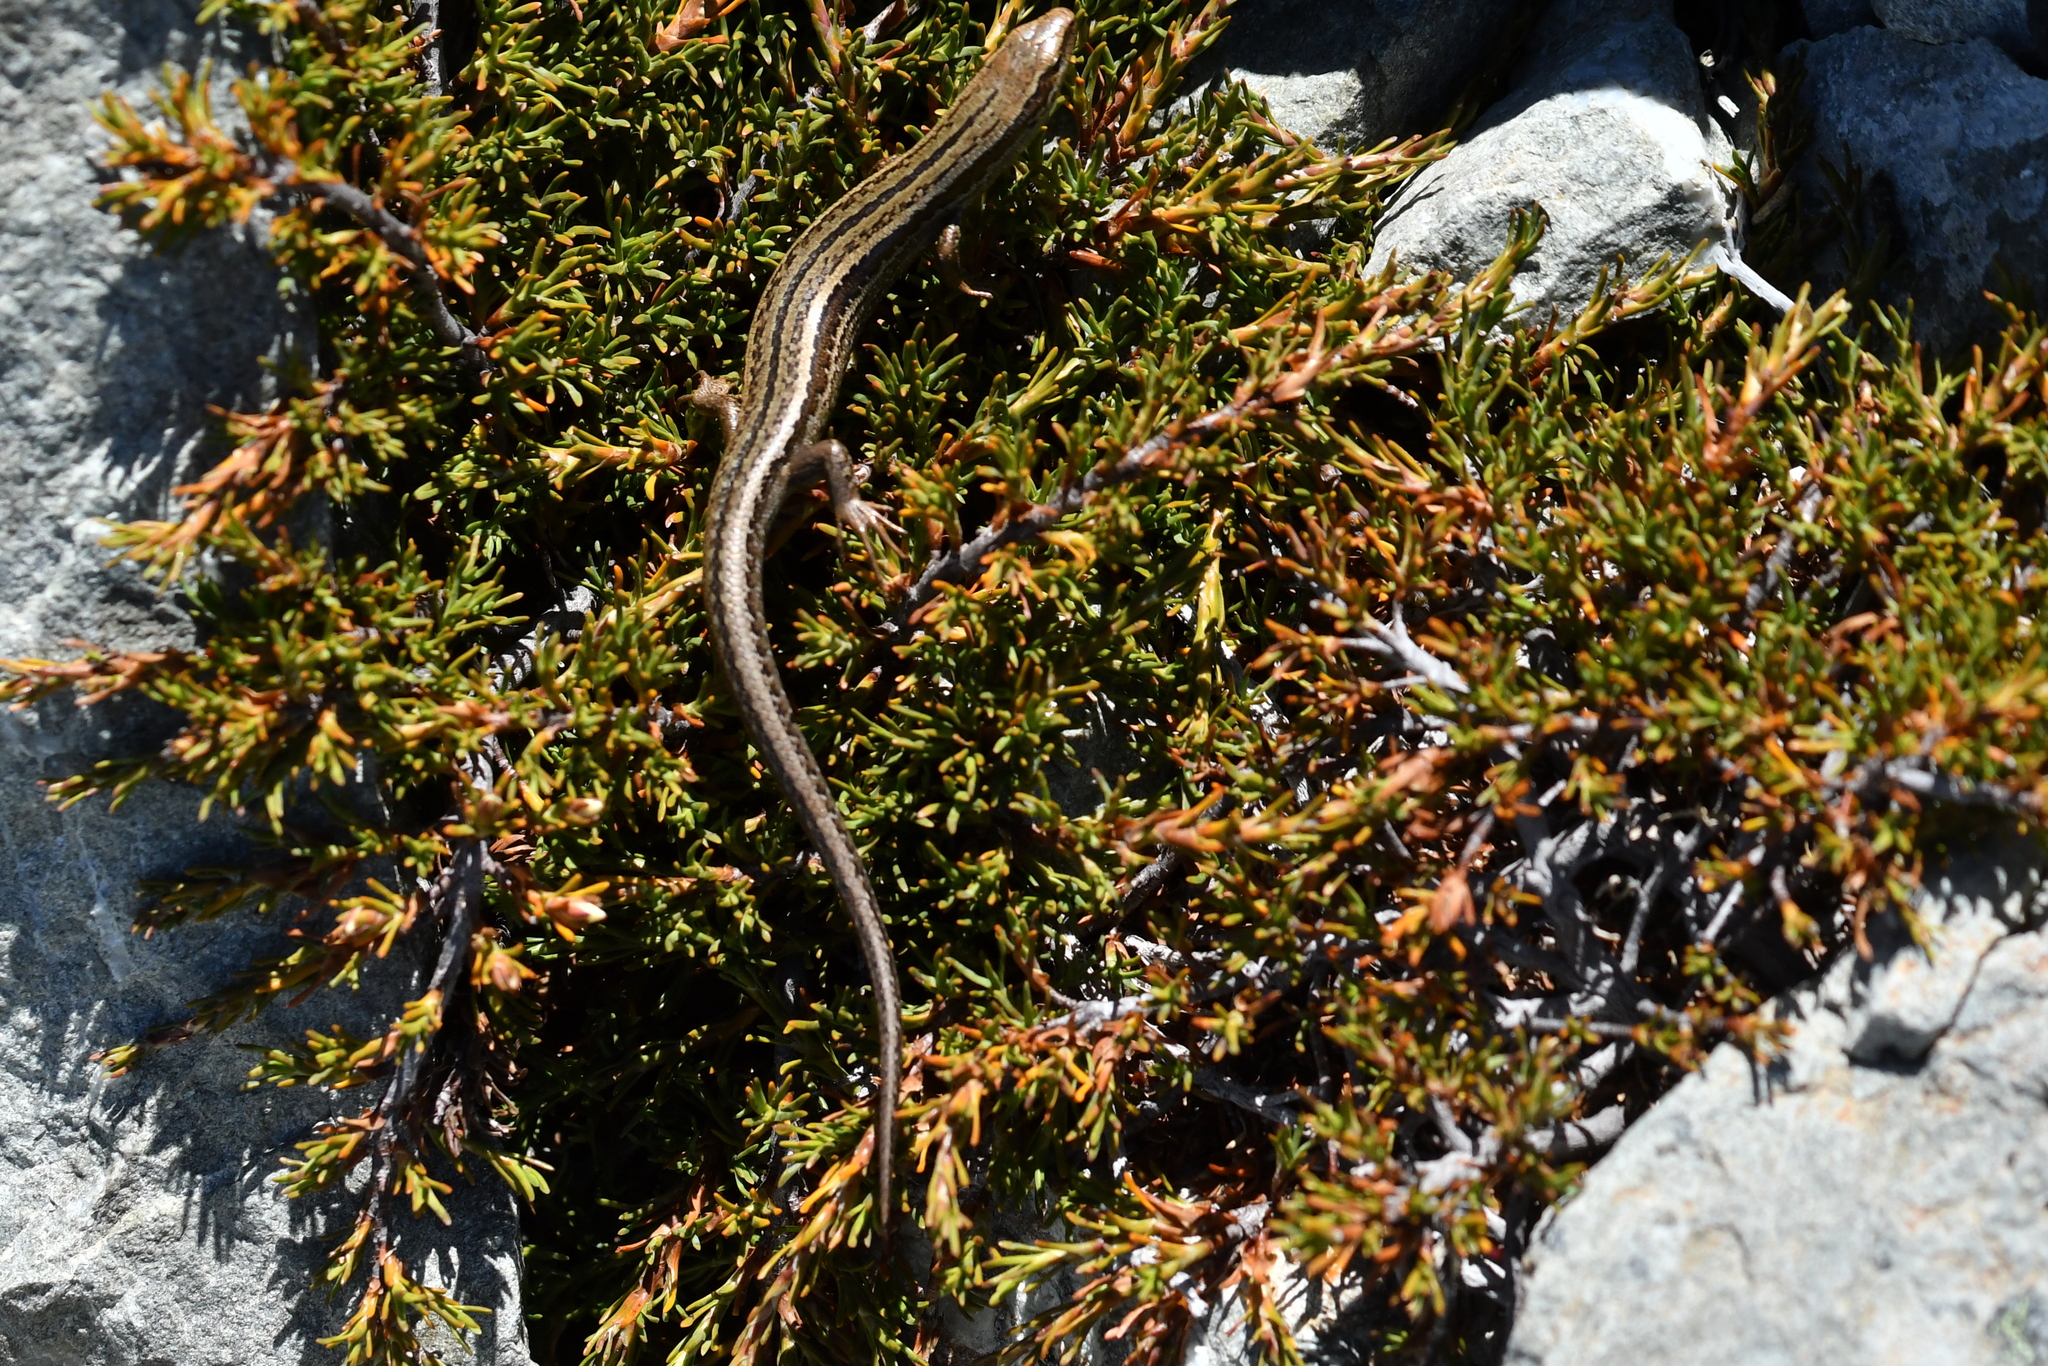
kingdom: Animalia
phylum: Chordata
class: Squamata
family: Scincidae
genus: Oligosoma
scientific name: Oligosoma polychroma
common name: Common new zealand skink
